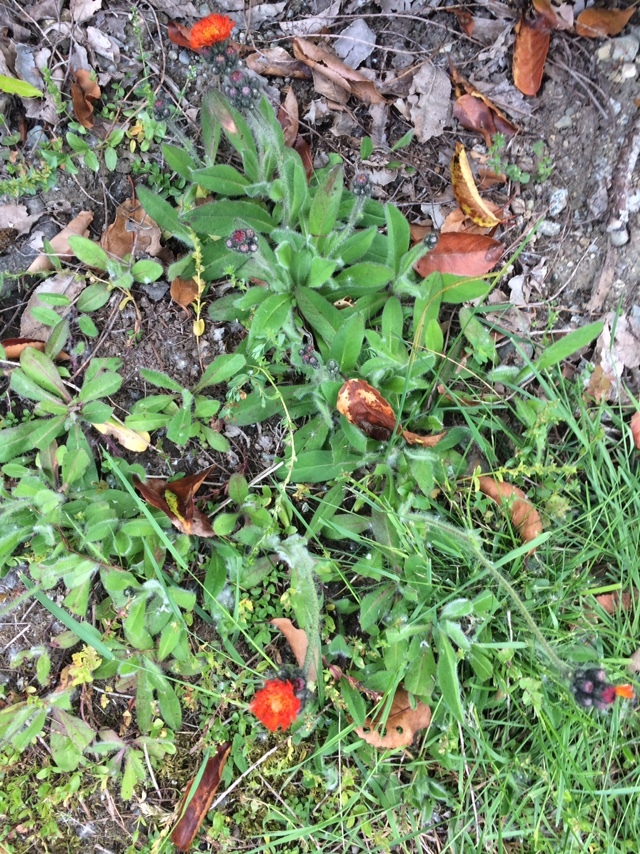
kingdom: Plantae
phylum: Tracheophyta
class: Magnoliopsida
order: Asterales
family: Asteraceae
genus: Pilosella
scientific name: Pilosella aurantiaca
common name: Fox-and-cubs
